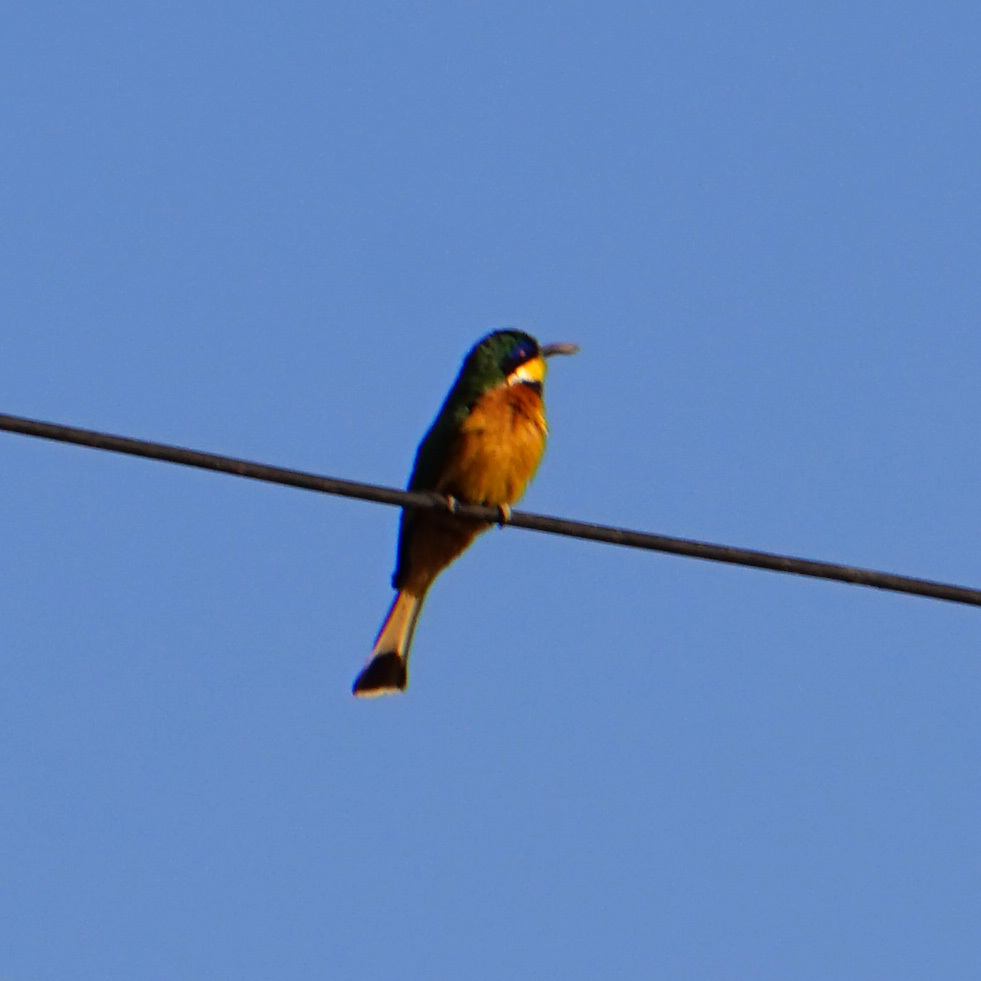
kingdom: Animalia
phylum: Chordata
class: Aves
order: Coraciiformes
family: Meropidae
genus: Merops
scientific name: Merops lafresnayii
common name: Ethiopian bee-eater
